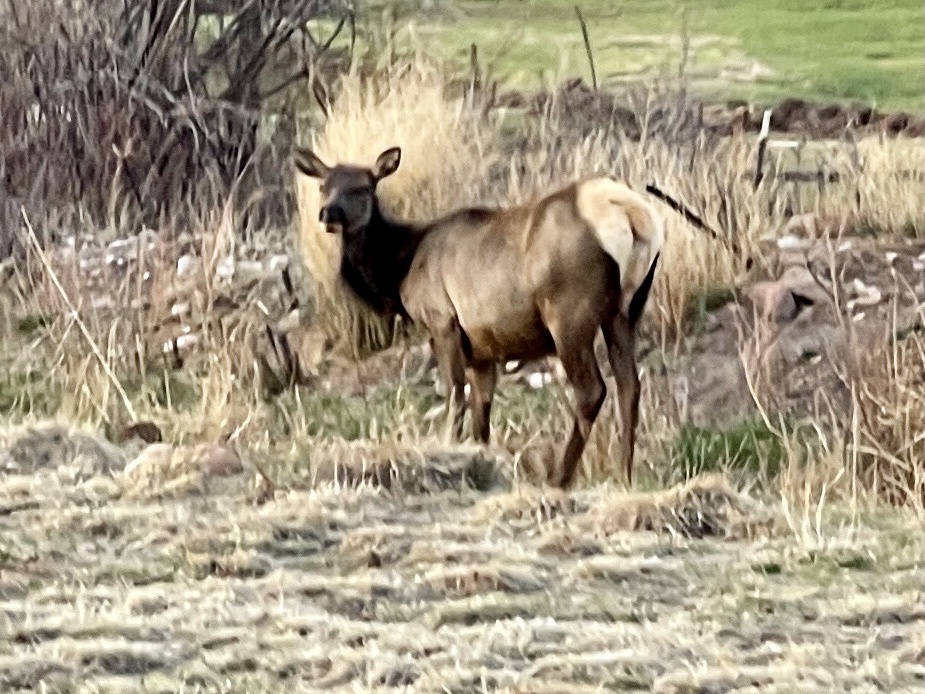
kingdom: Animalia
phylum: Chordata
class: Mammalia
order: Artiodactyla
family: Cervidae
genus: Cervus
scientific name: Cervus elaphus
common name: Red deer
